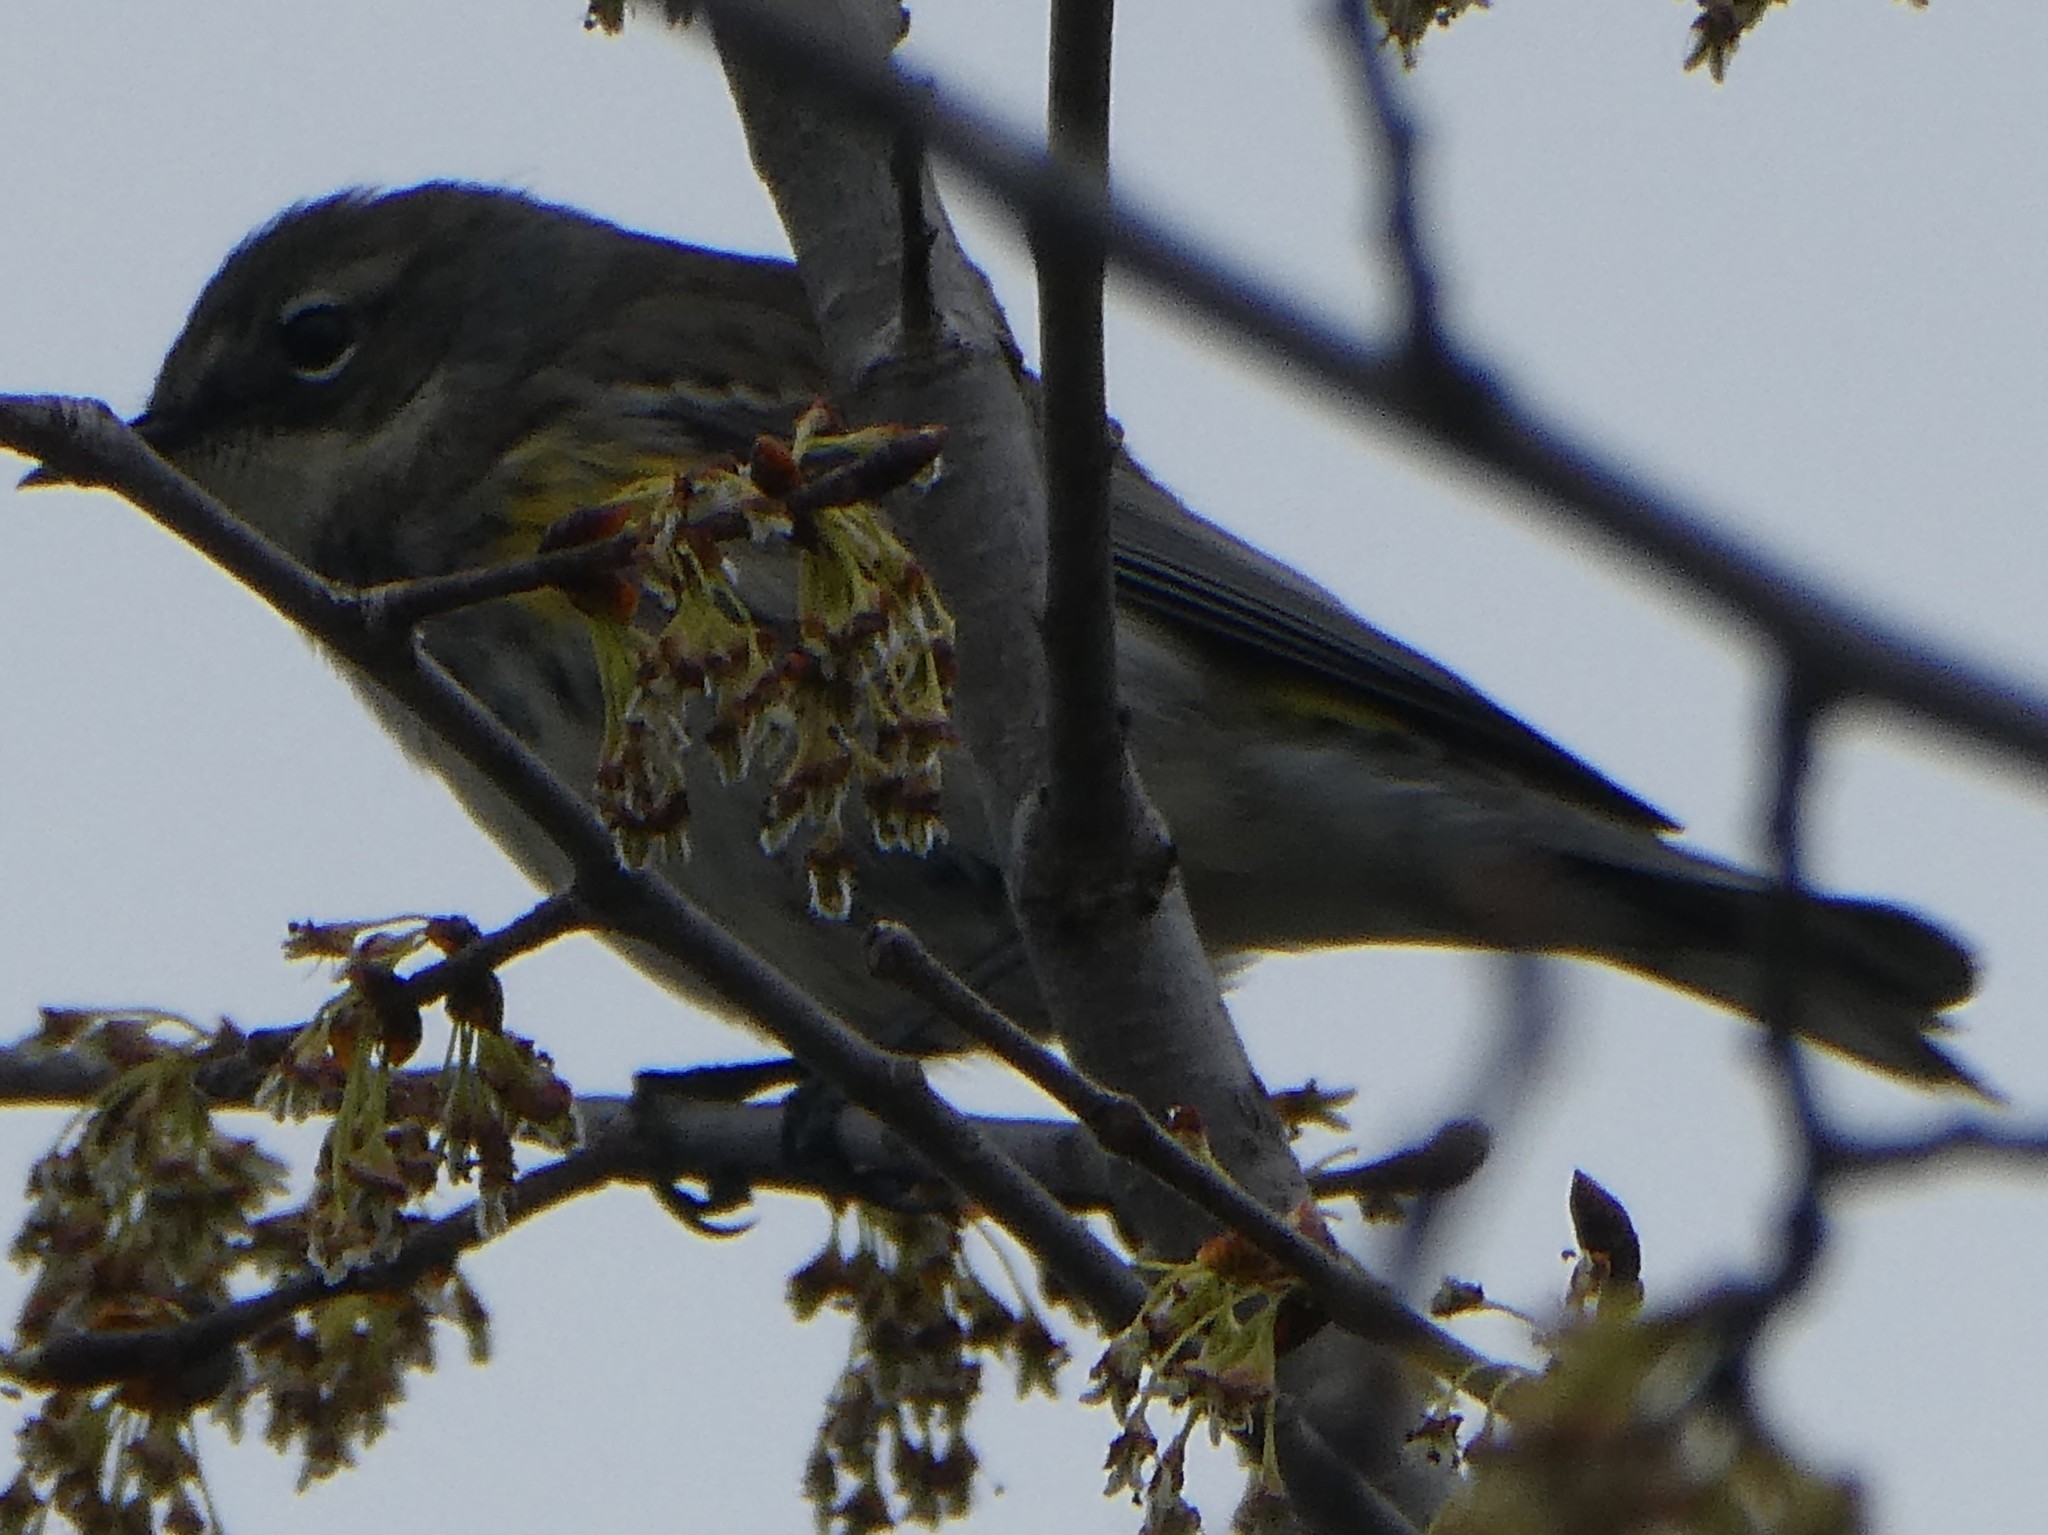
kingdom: Animalia
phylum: Chordata
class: Aves
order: Passeriformes
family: Parulidae
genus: Setophaga
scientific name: Setophaga coronata
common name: Myrtle warbler
